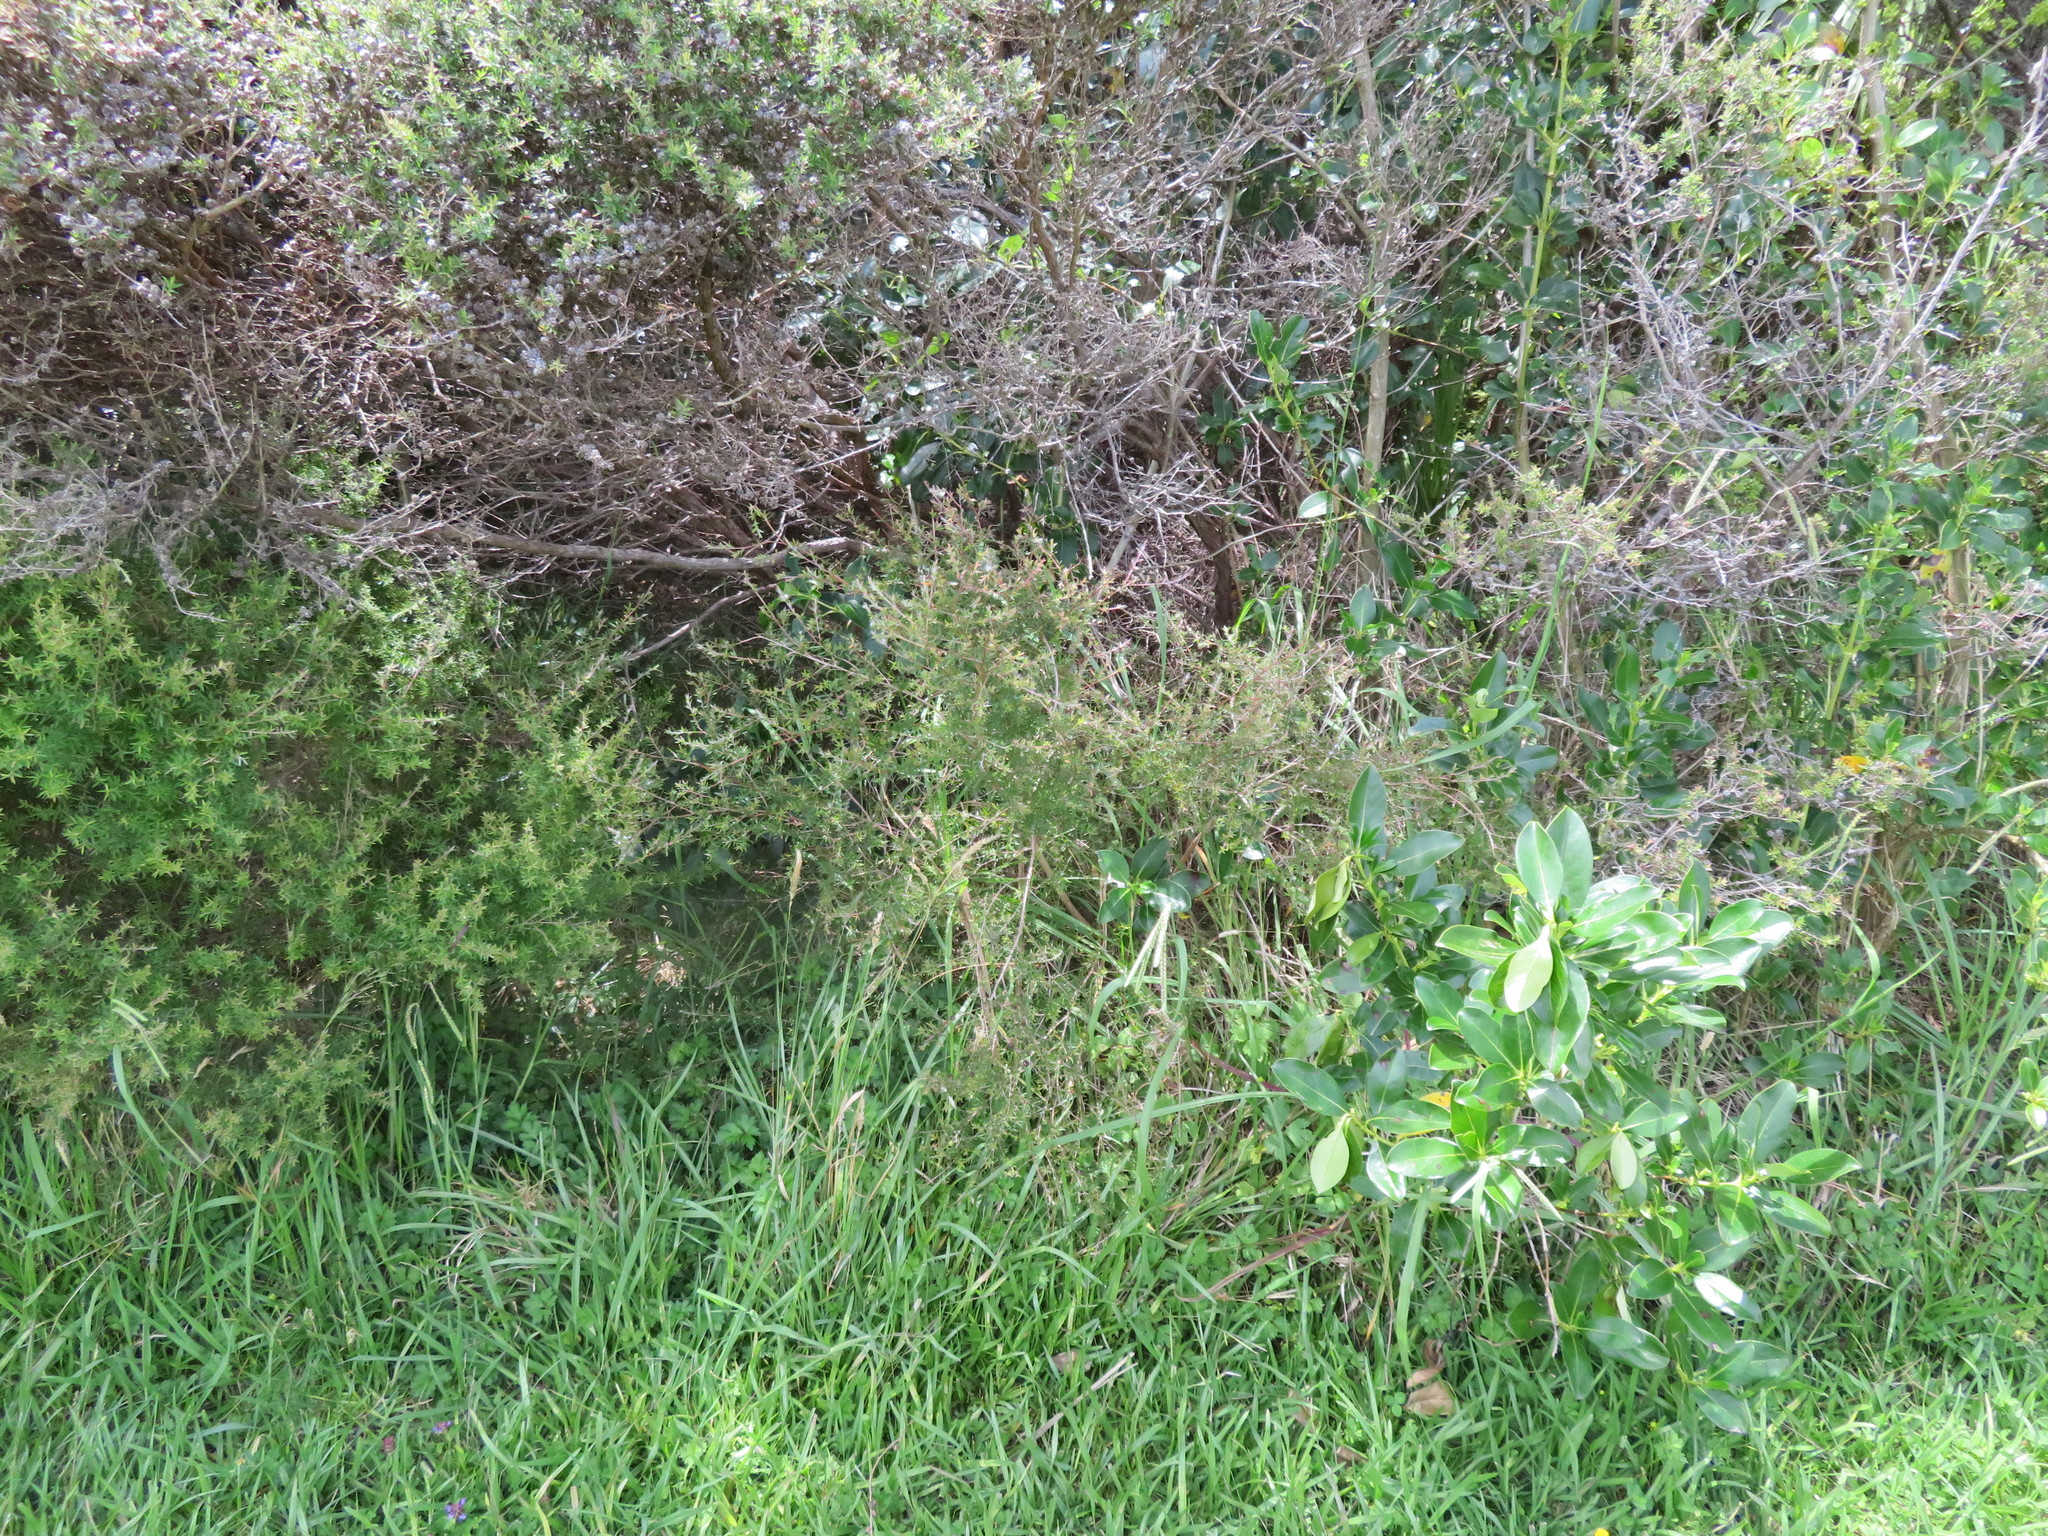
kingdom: Plantae
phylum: Tracheophyta
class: Magnoliopsida
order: Myrtales
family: Myrtaceae
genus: Leptospermum
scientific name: Leptospermum scoparium
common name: Broom tea-tree
